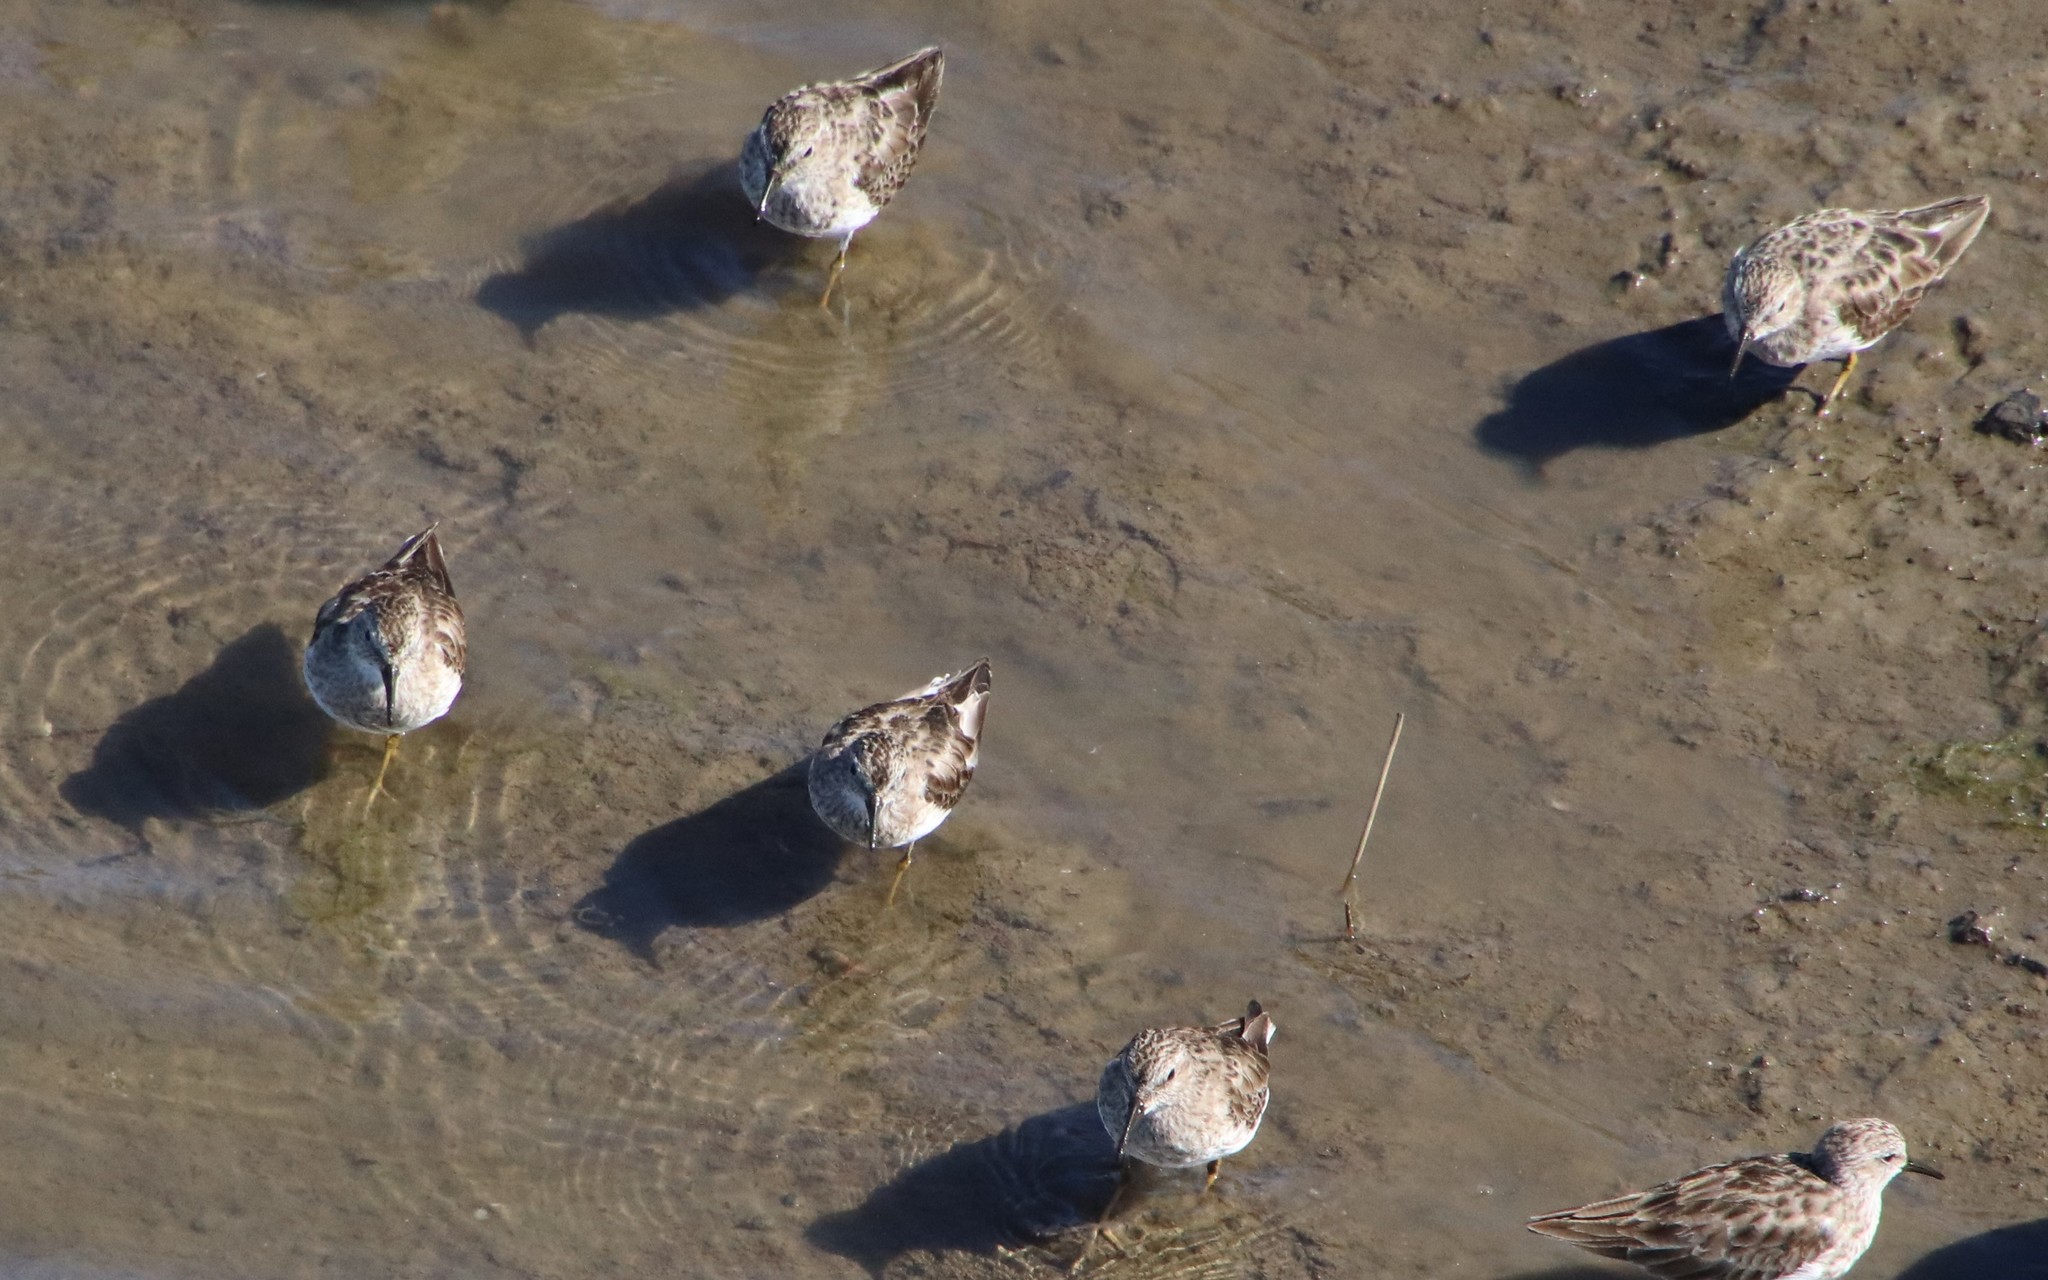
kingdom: Animalia
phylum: Chordata
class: Aves
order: Charadriiformes
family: Scolopacidae
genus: Calidris
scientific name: Calidris minutilla
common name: Least sandpiper
